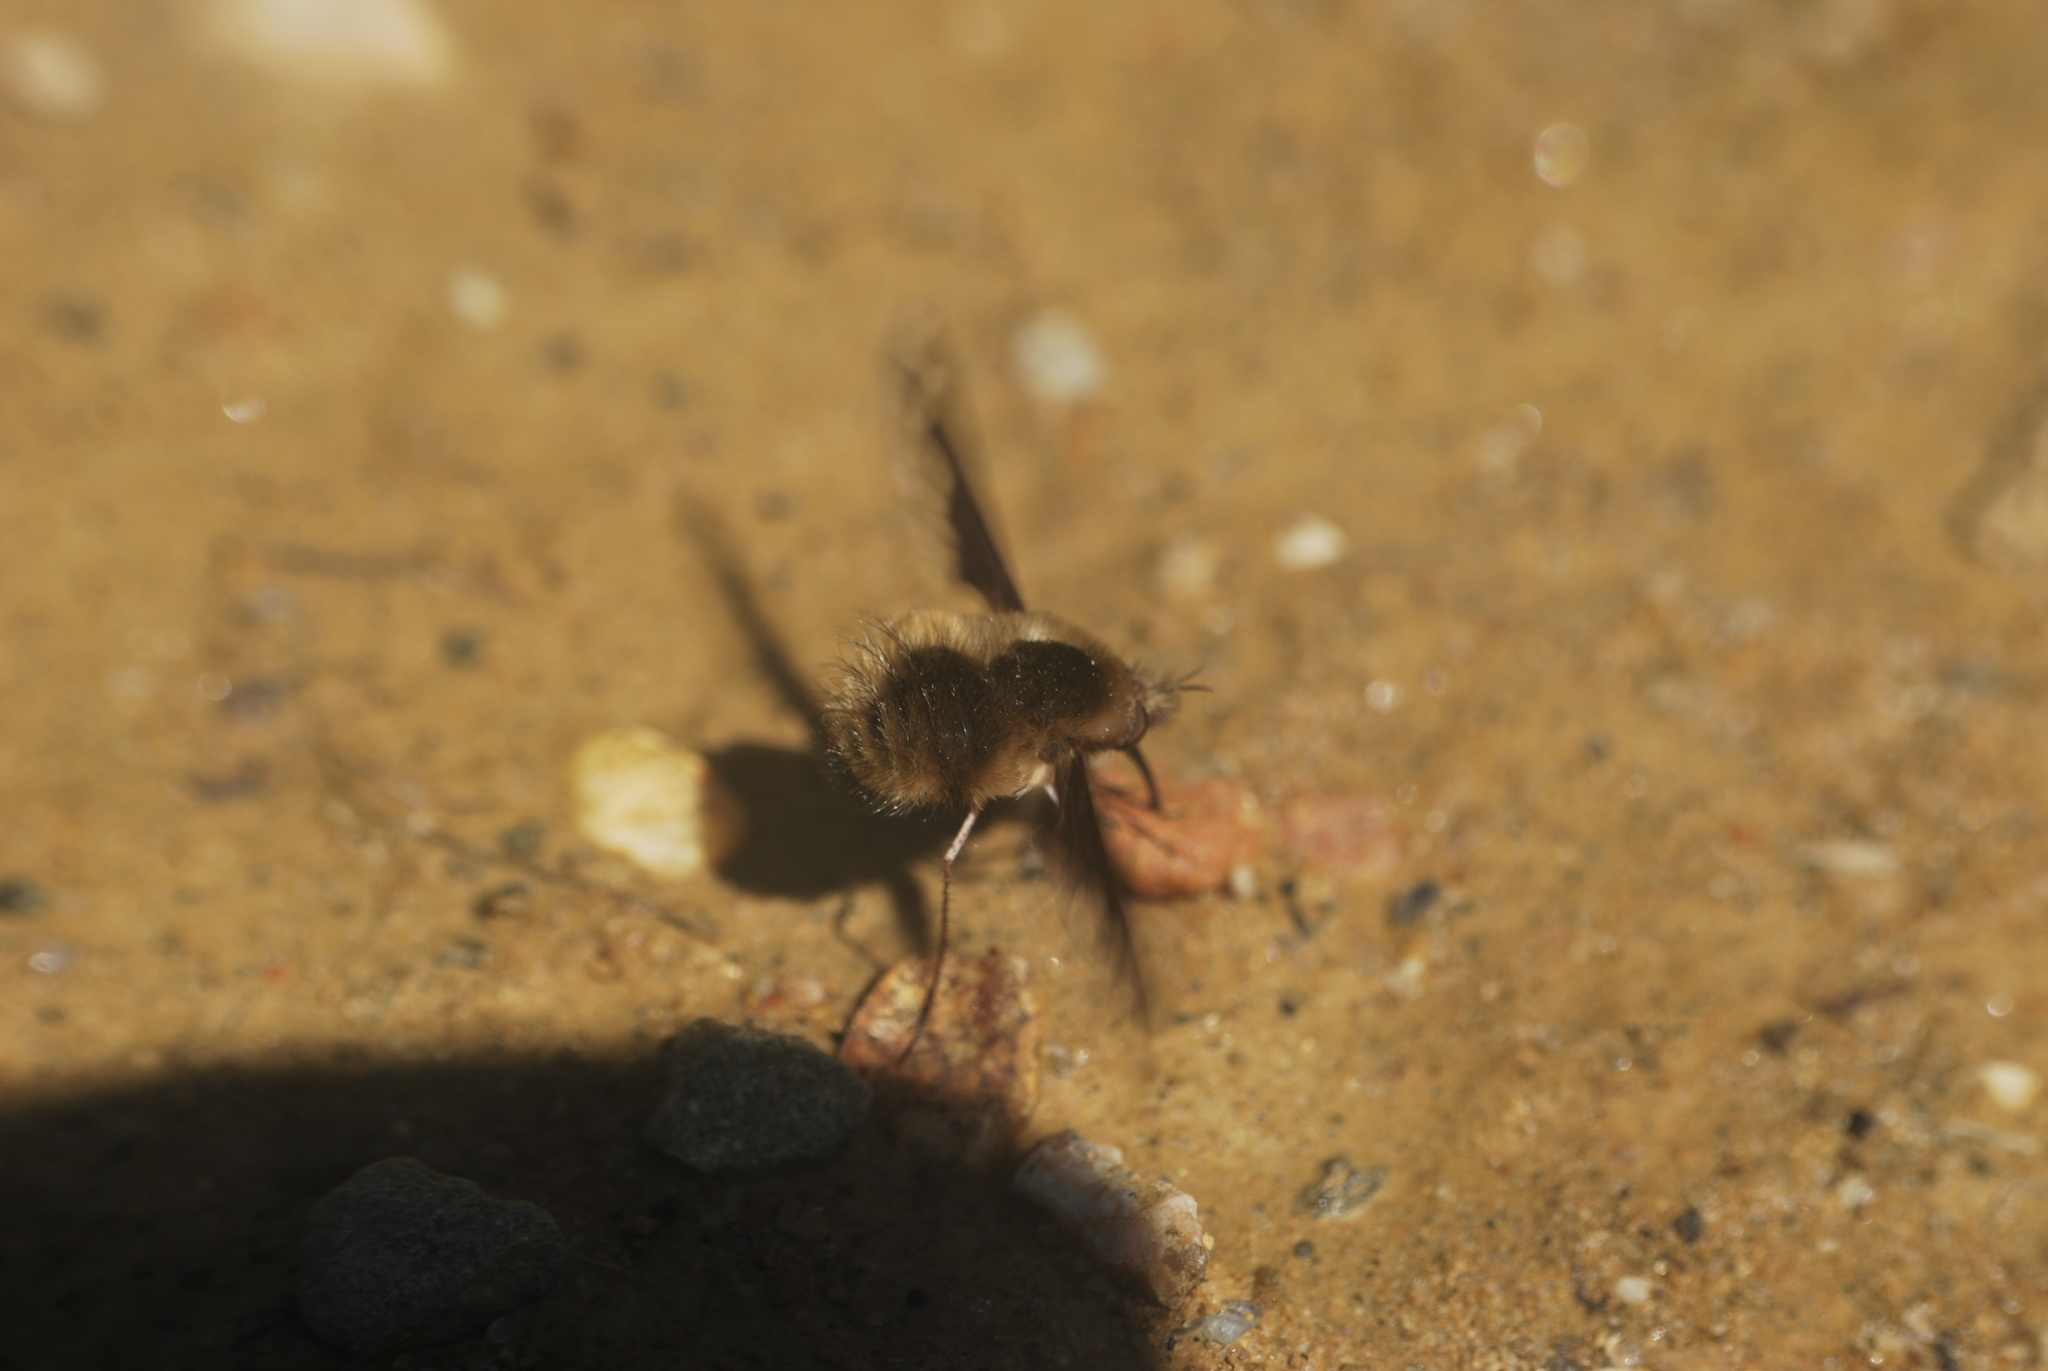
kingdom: Animalia
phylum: Arthropoda
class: Insecta
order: Diptera
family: Bombyliidae
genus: Bombylius
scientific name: Bombylius major
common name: Bee fly
